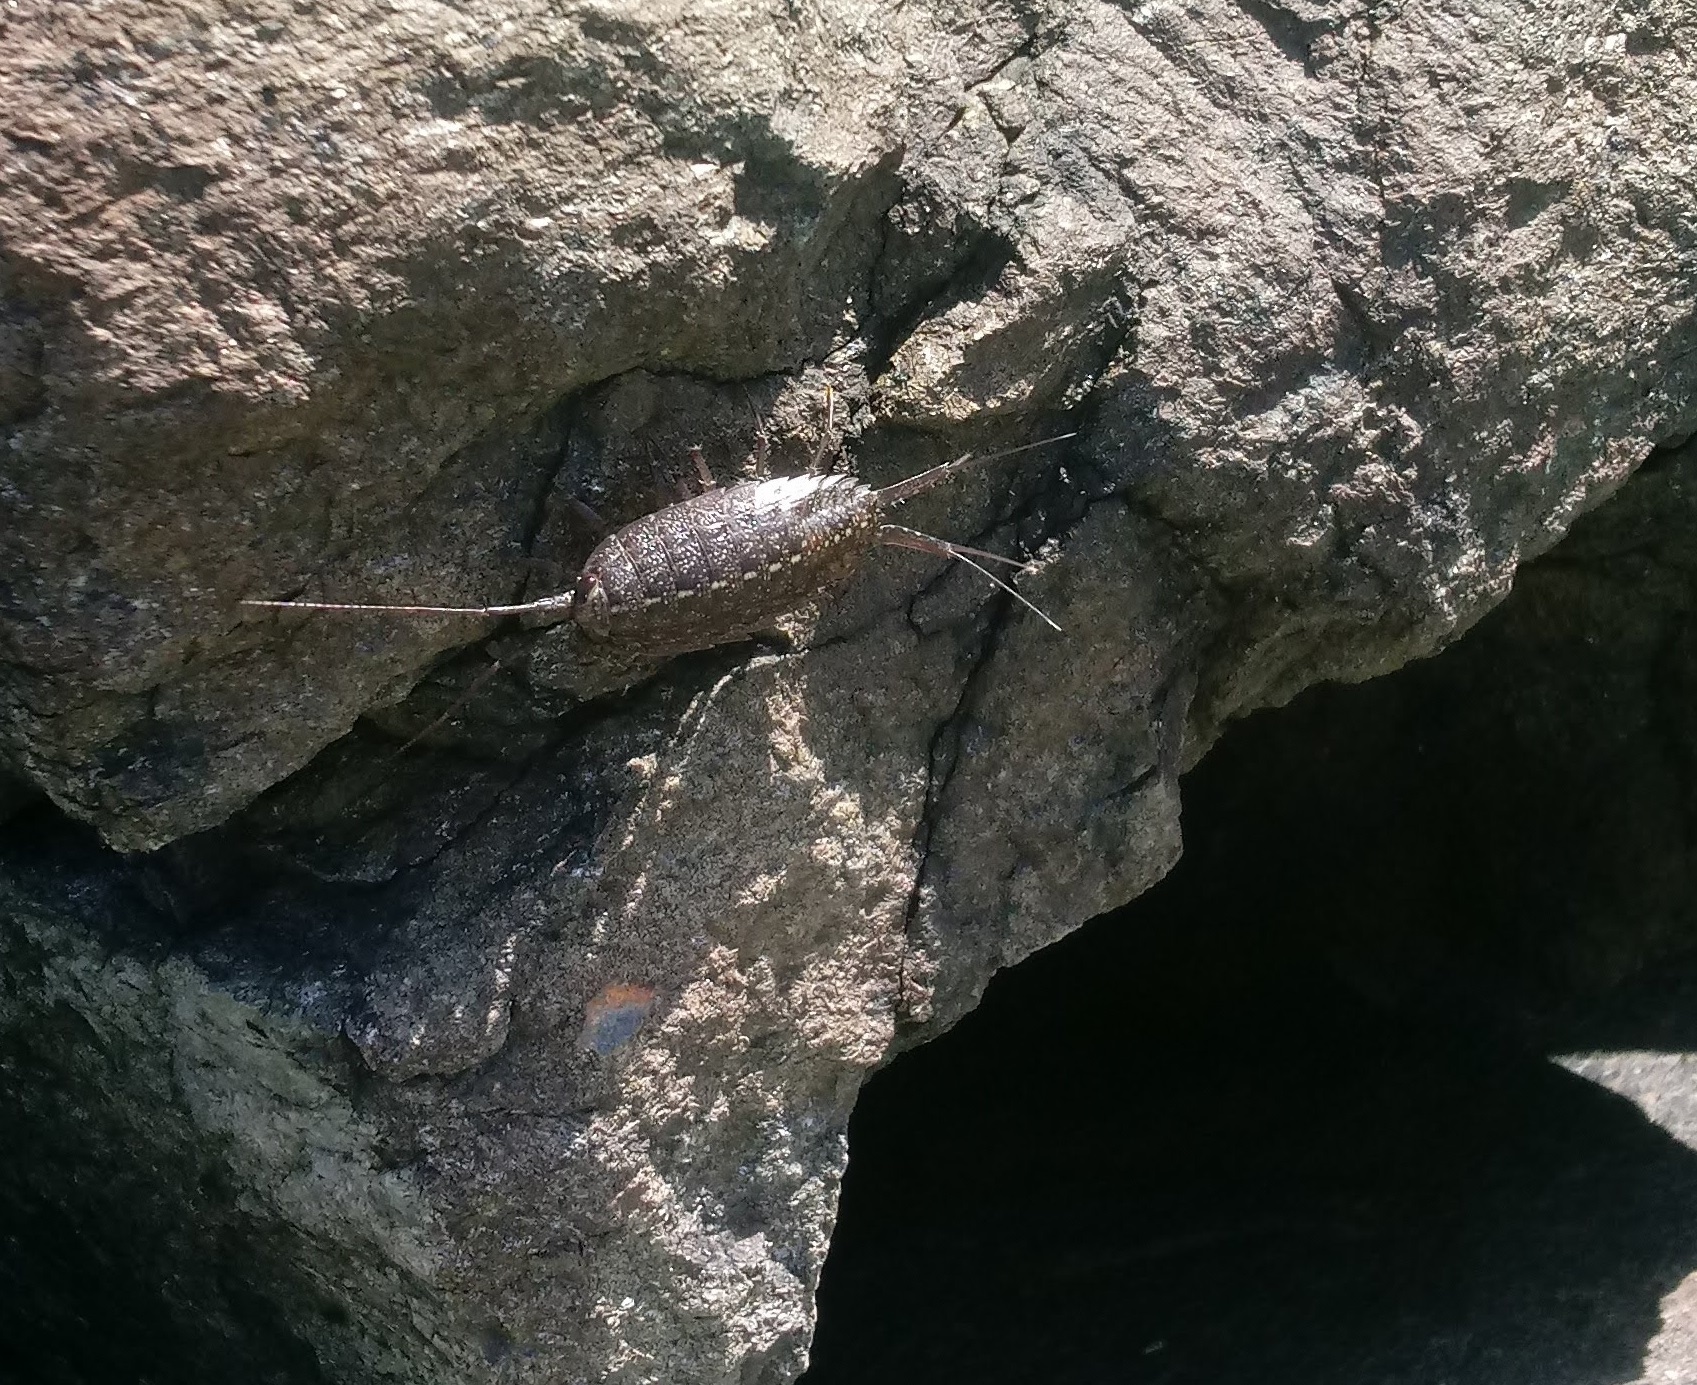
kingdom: Animalia
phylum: Arthropoda
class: Malacostraca
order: Isopoda
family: Ligiidae
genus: Ligia
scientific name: Ligia exotica
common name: Wharf roach
